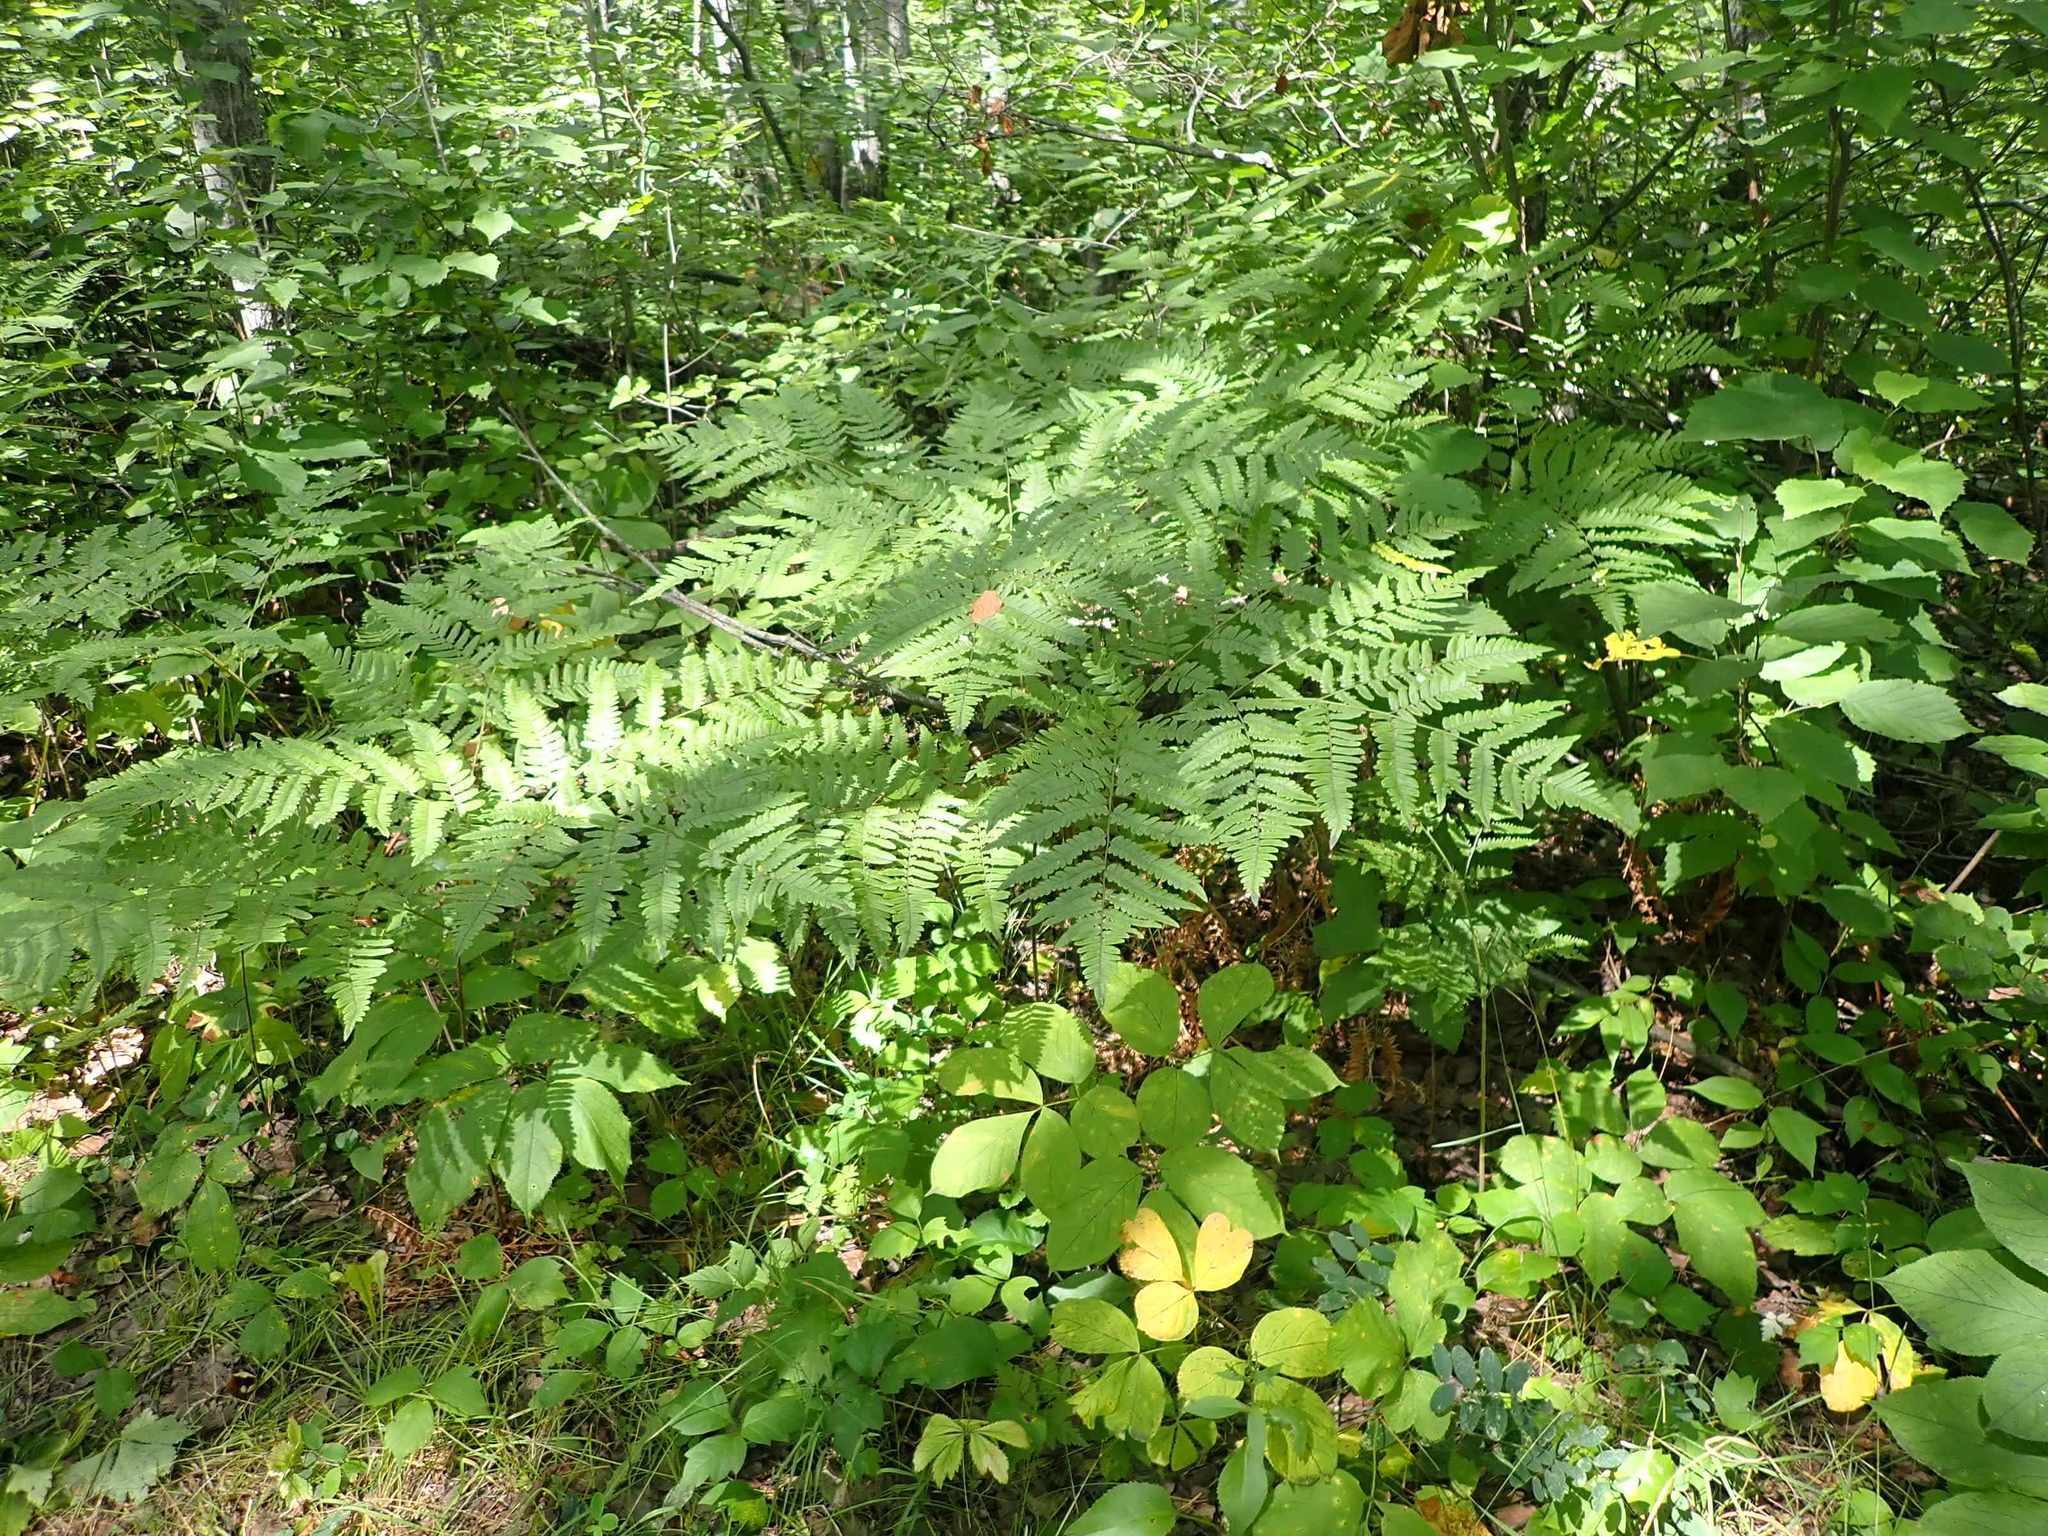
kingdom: Plantae
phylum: Tracheophyta
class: Polypodiopsida
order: Polypodiales
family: Dennstaedtiaceae
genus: Pteridium
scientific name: Pteridium aquilinum
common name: Bracken
